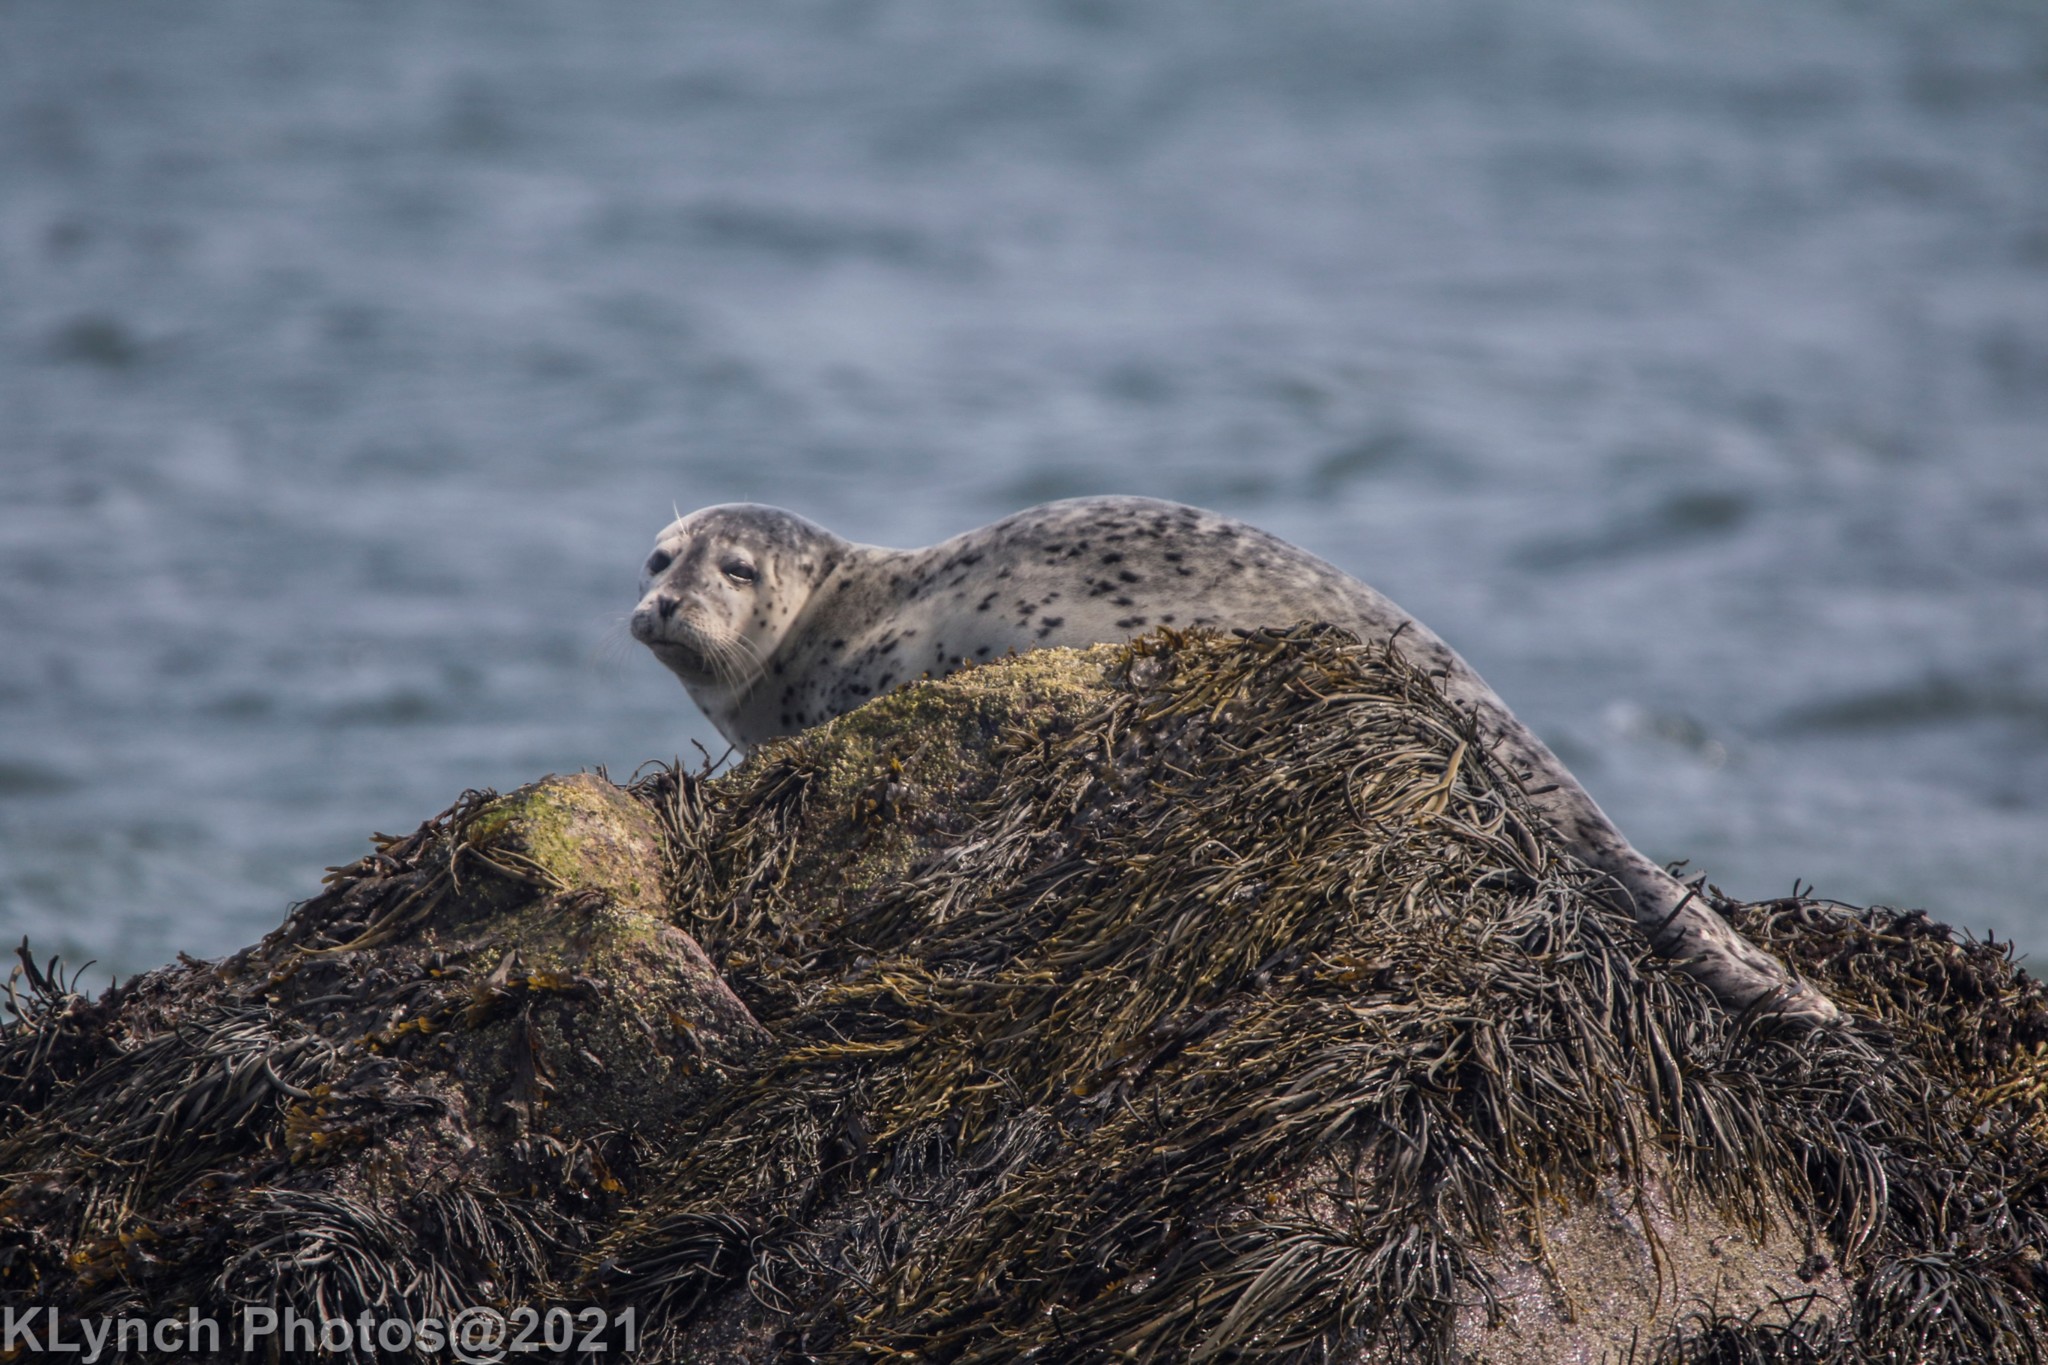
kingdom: Animalia
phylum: Chordata
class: Mammalia
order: Carnivora
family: Phocidae
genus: Phoca
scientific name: Phoca vitulina
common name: Harbor seal
